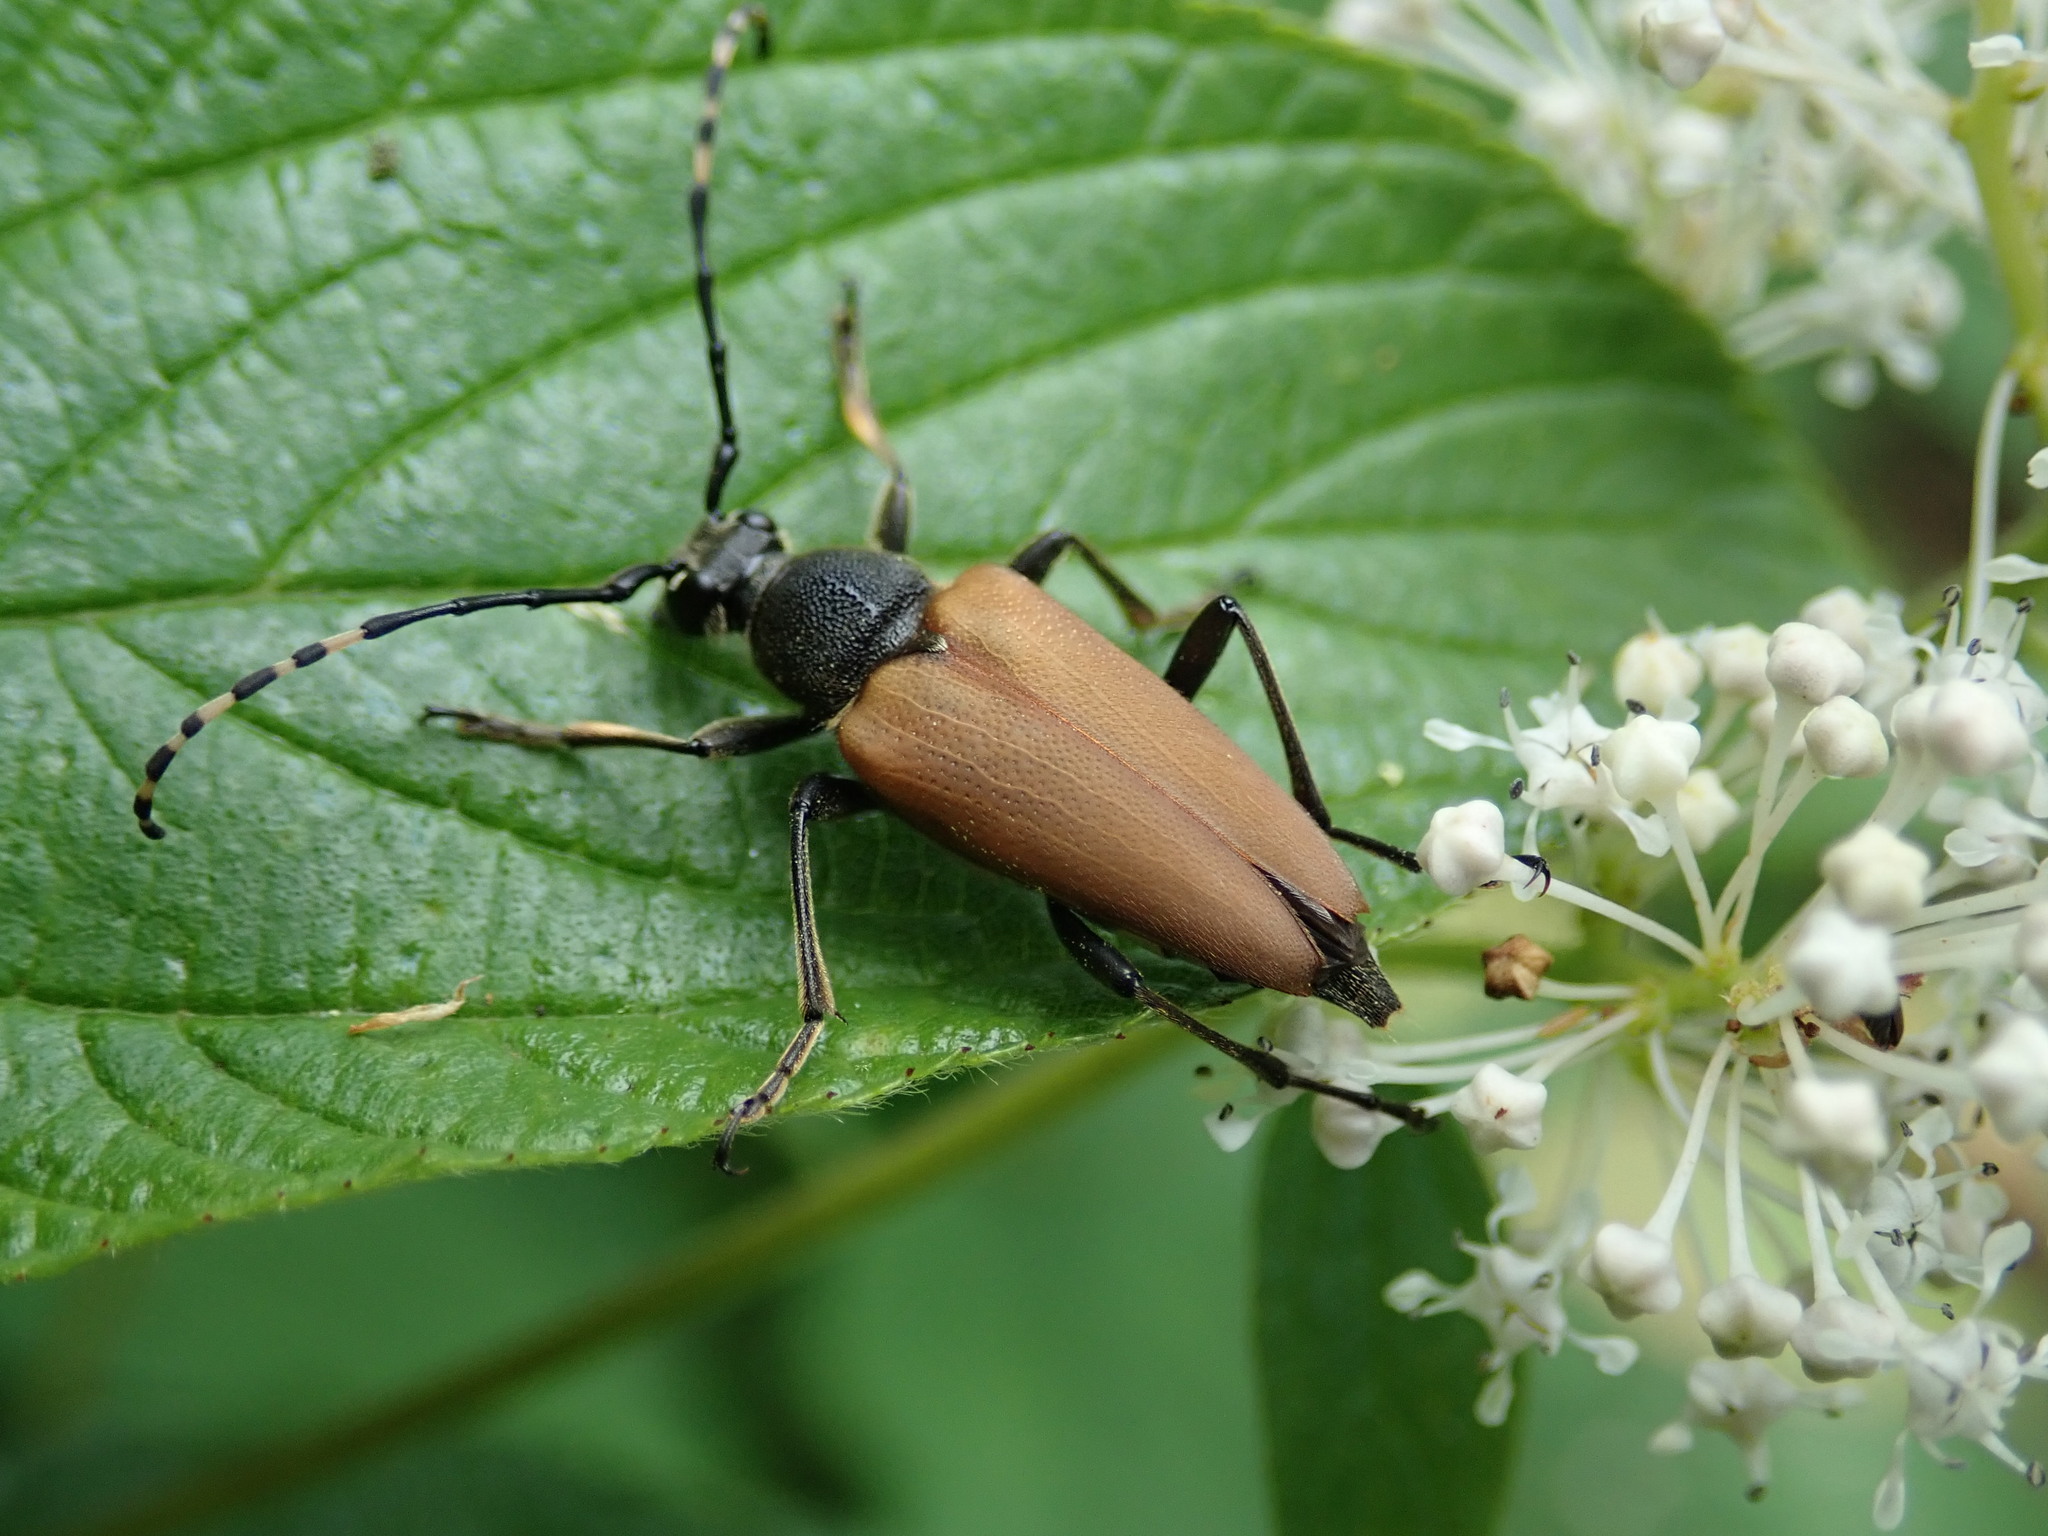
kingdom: Animalia
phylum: Arthropoda
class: Insecta
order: Coleoptera
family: Cerambycidae
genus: Brachyleptura
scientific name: Brachyleptura rubrica
